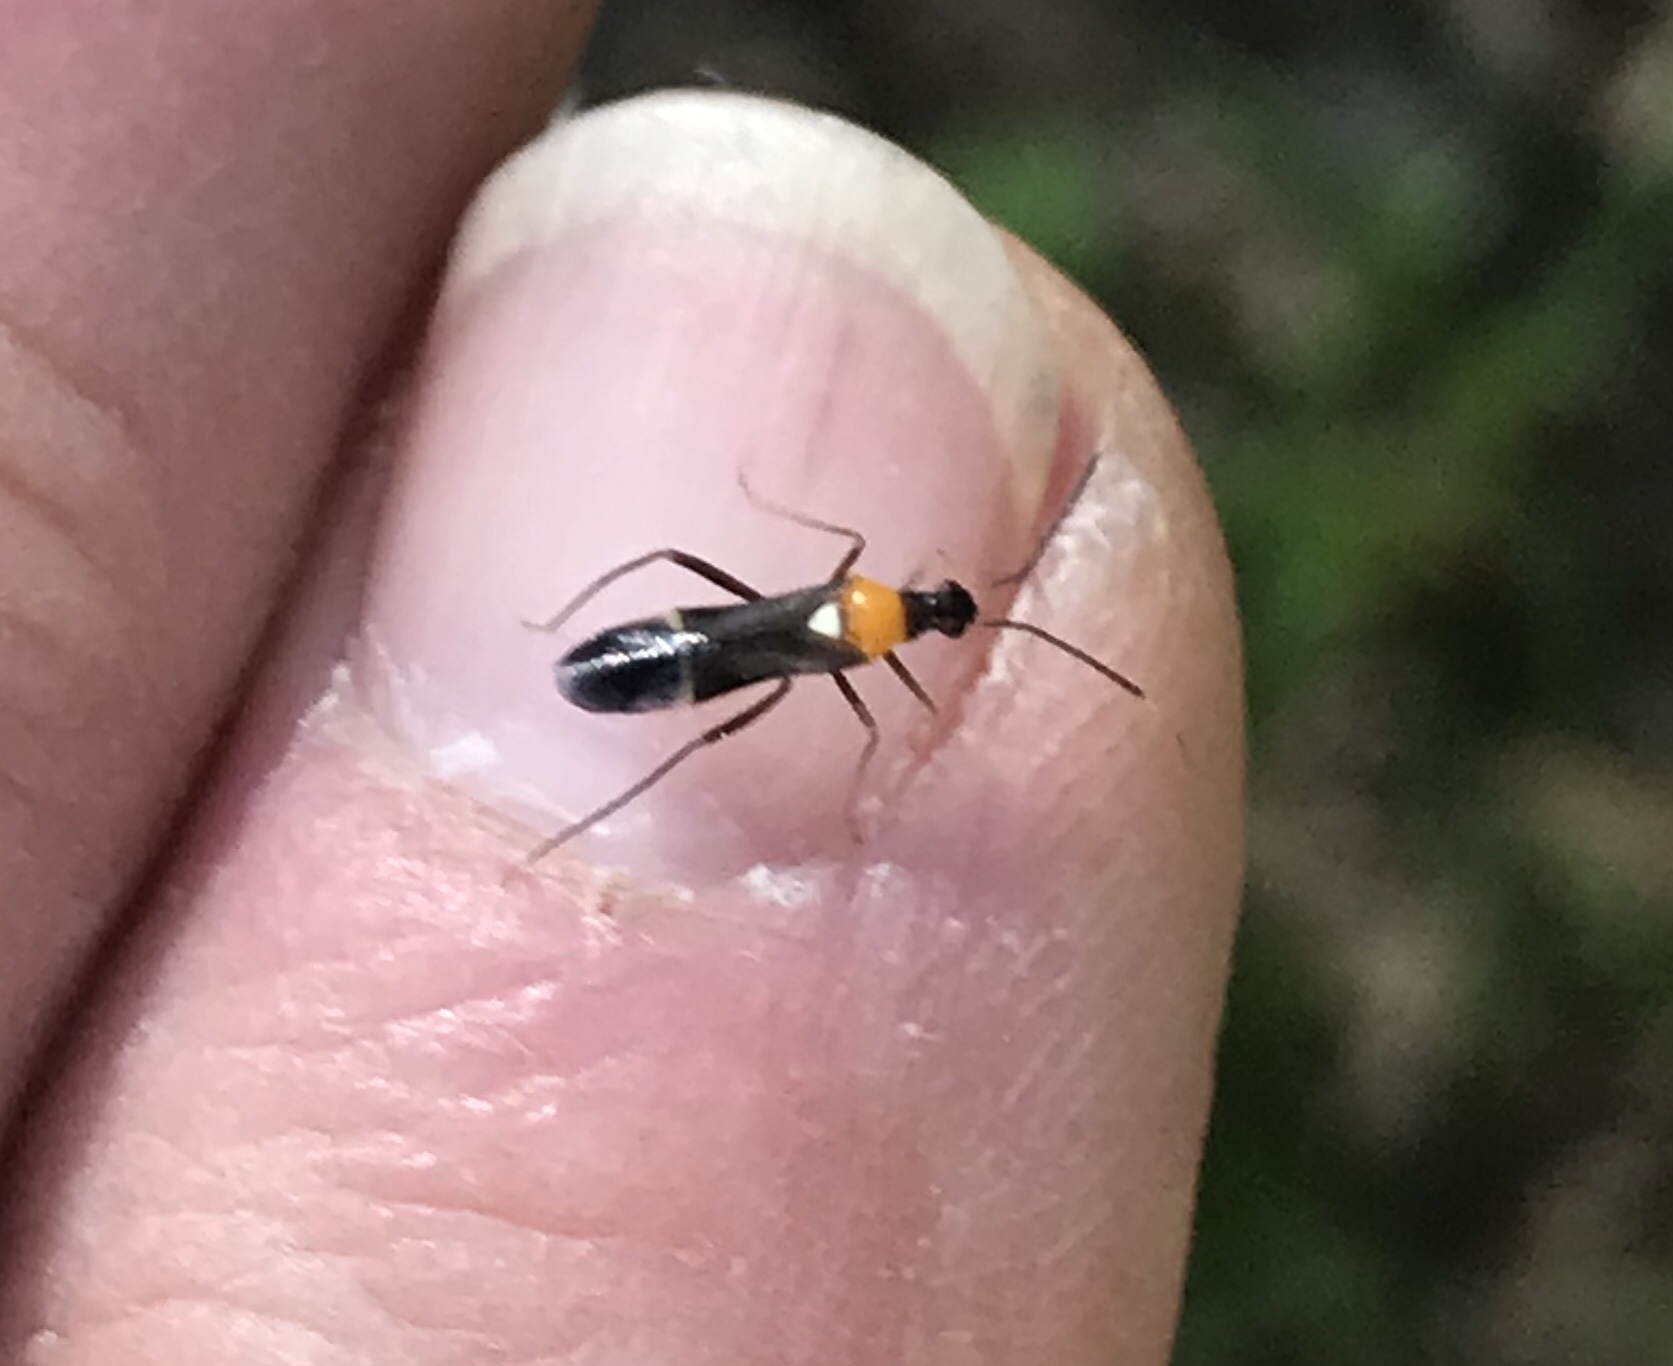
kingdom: Animalia
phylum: Arthropoda
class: Insecta
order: Hemiptera
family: Miridae
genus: Pseudoxenetus
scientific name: Pseudoxenetus regalis
